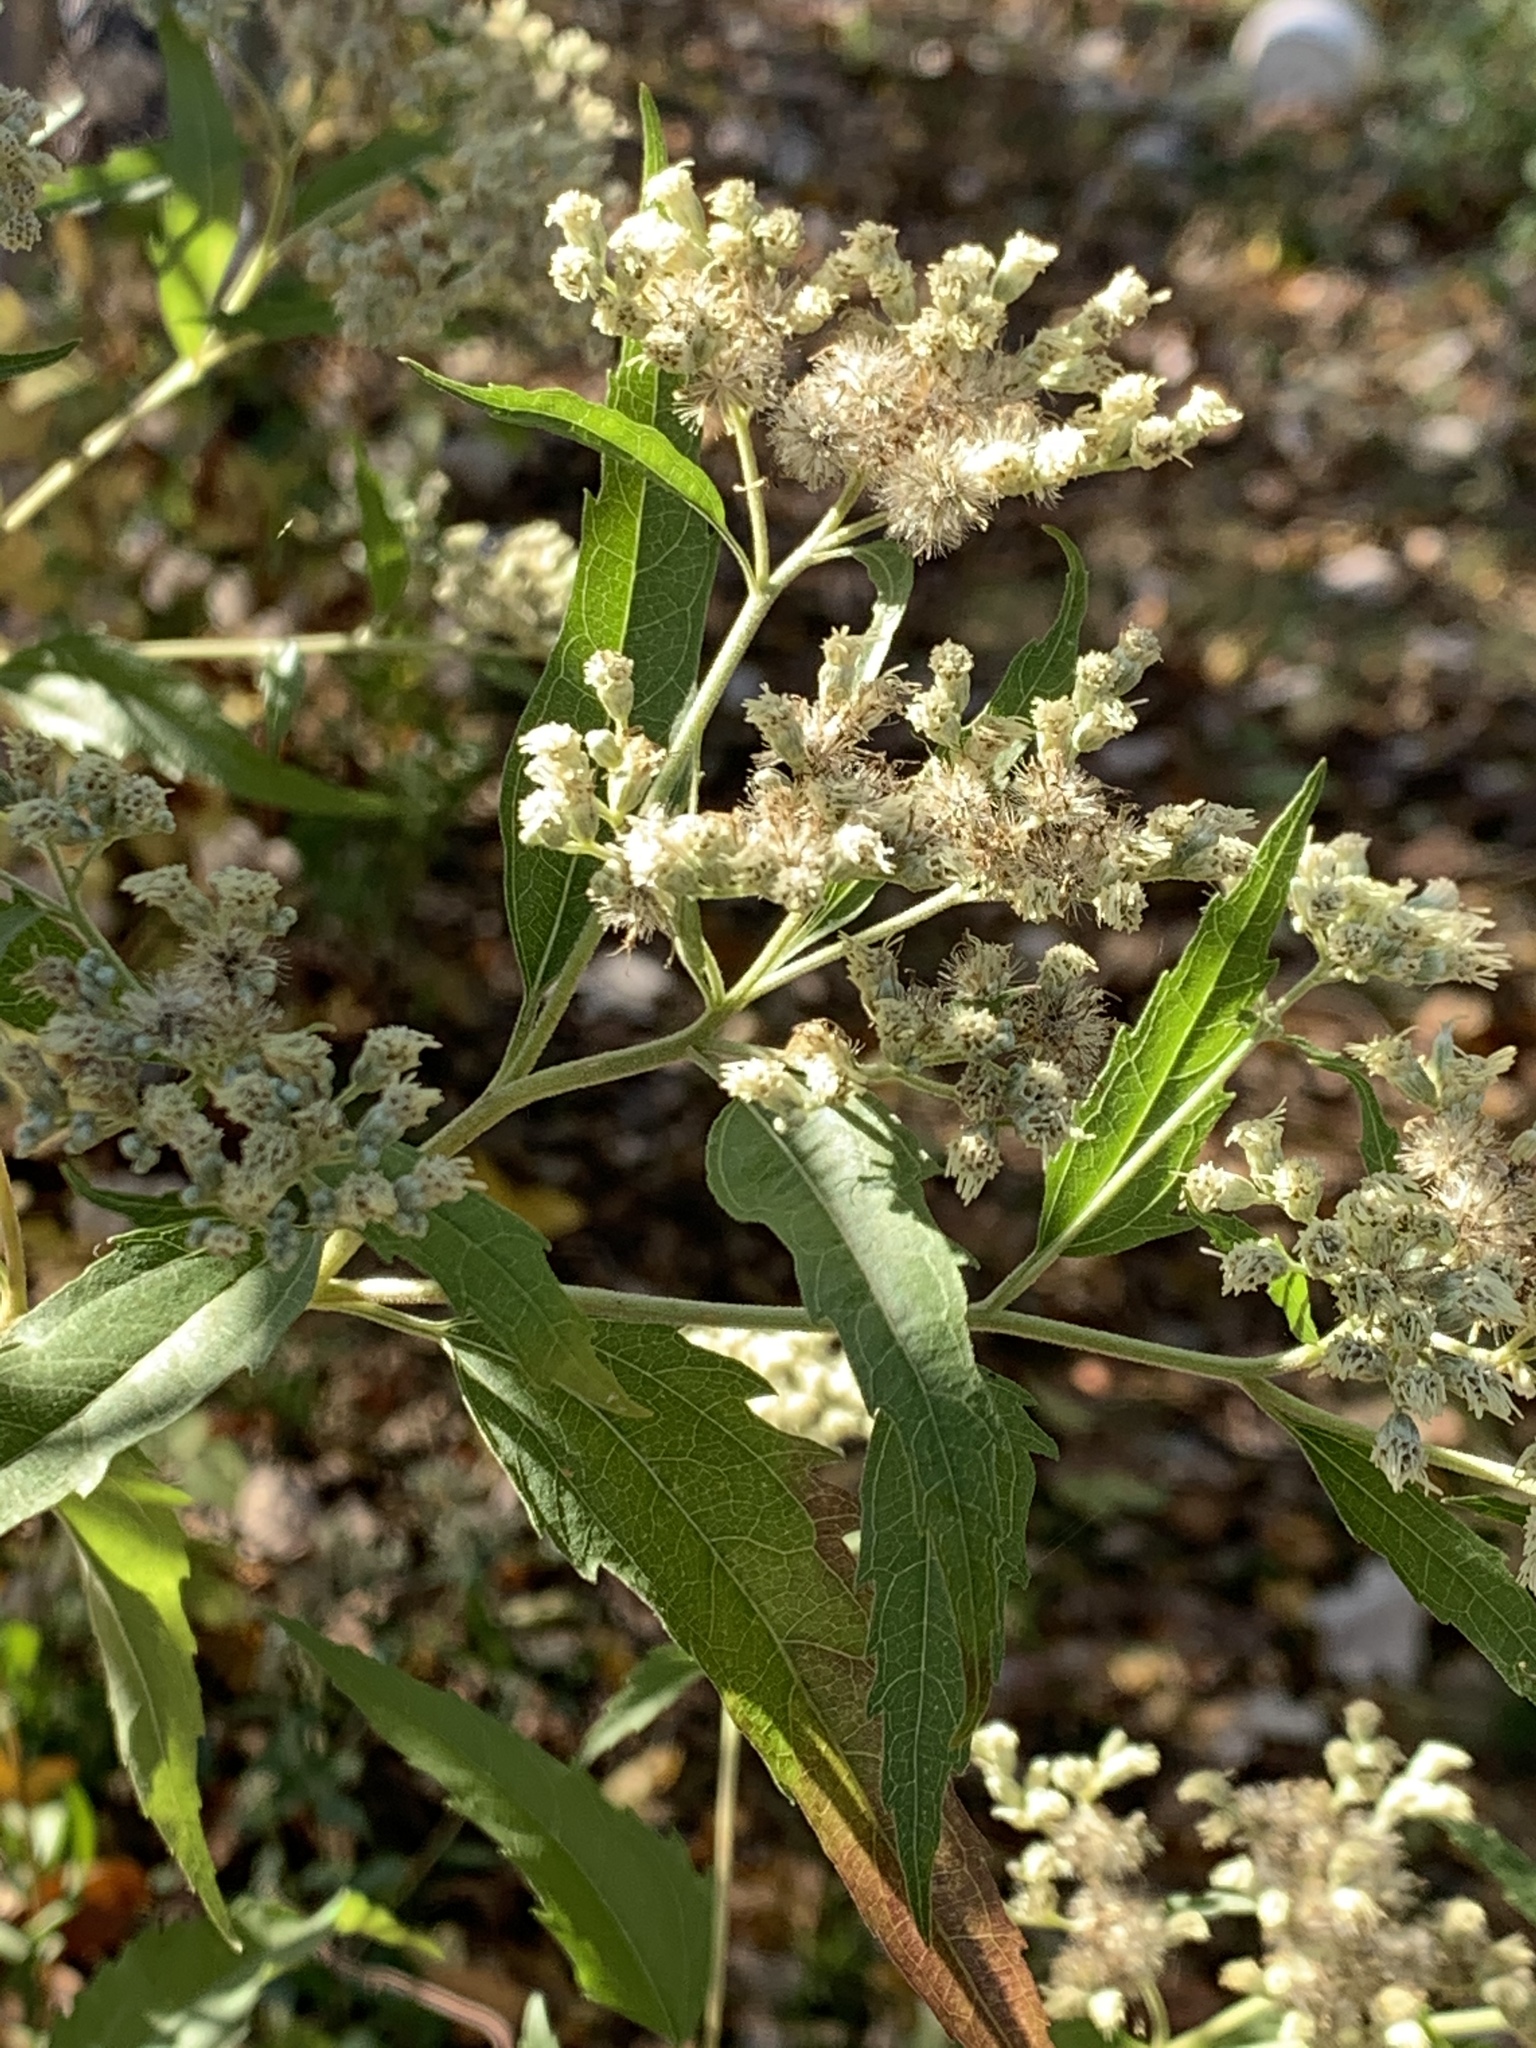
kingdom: Plantae
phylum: Tracheophyta
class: Magnoliopsida
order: Asterales
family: Asteraceae
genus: Eupatorium
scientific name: Eupatorium serotinum
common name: Late boneset
